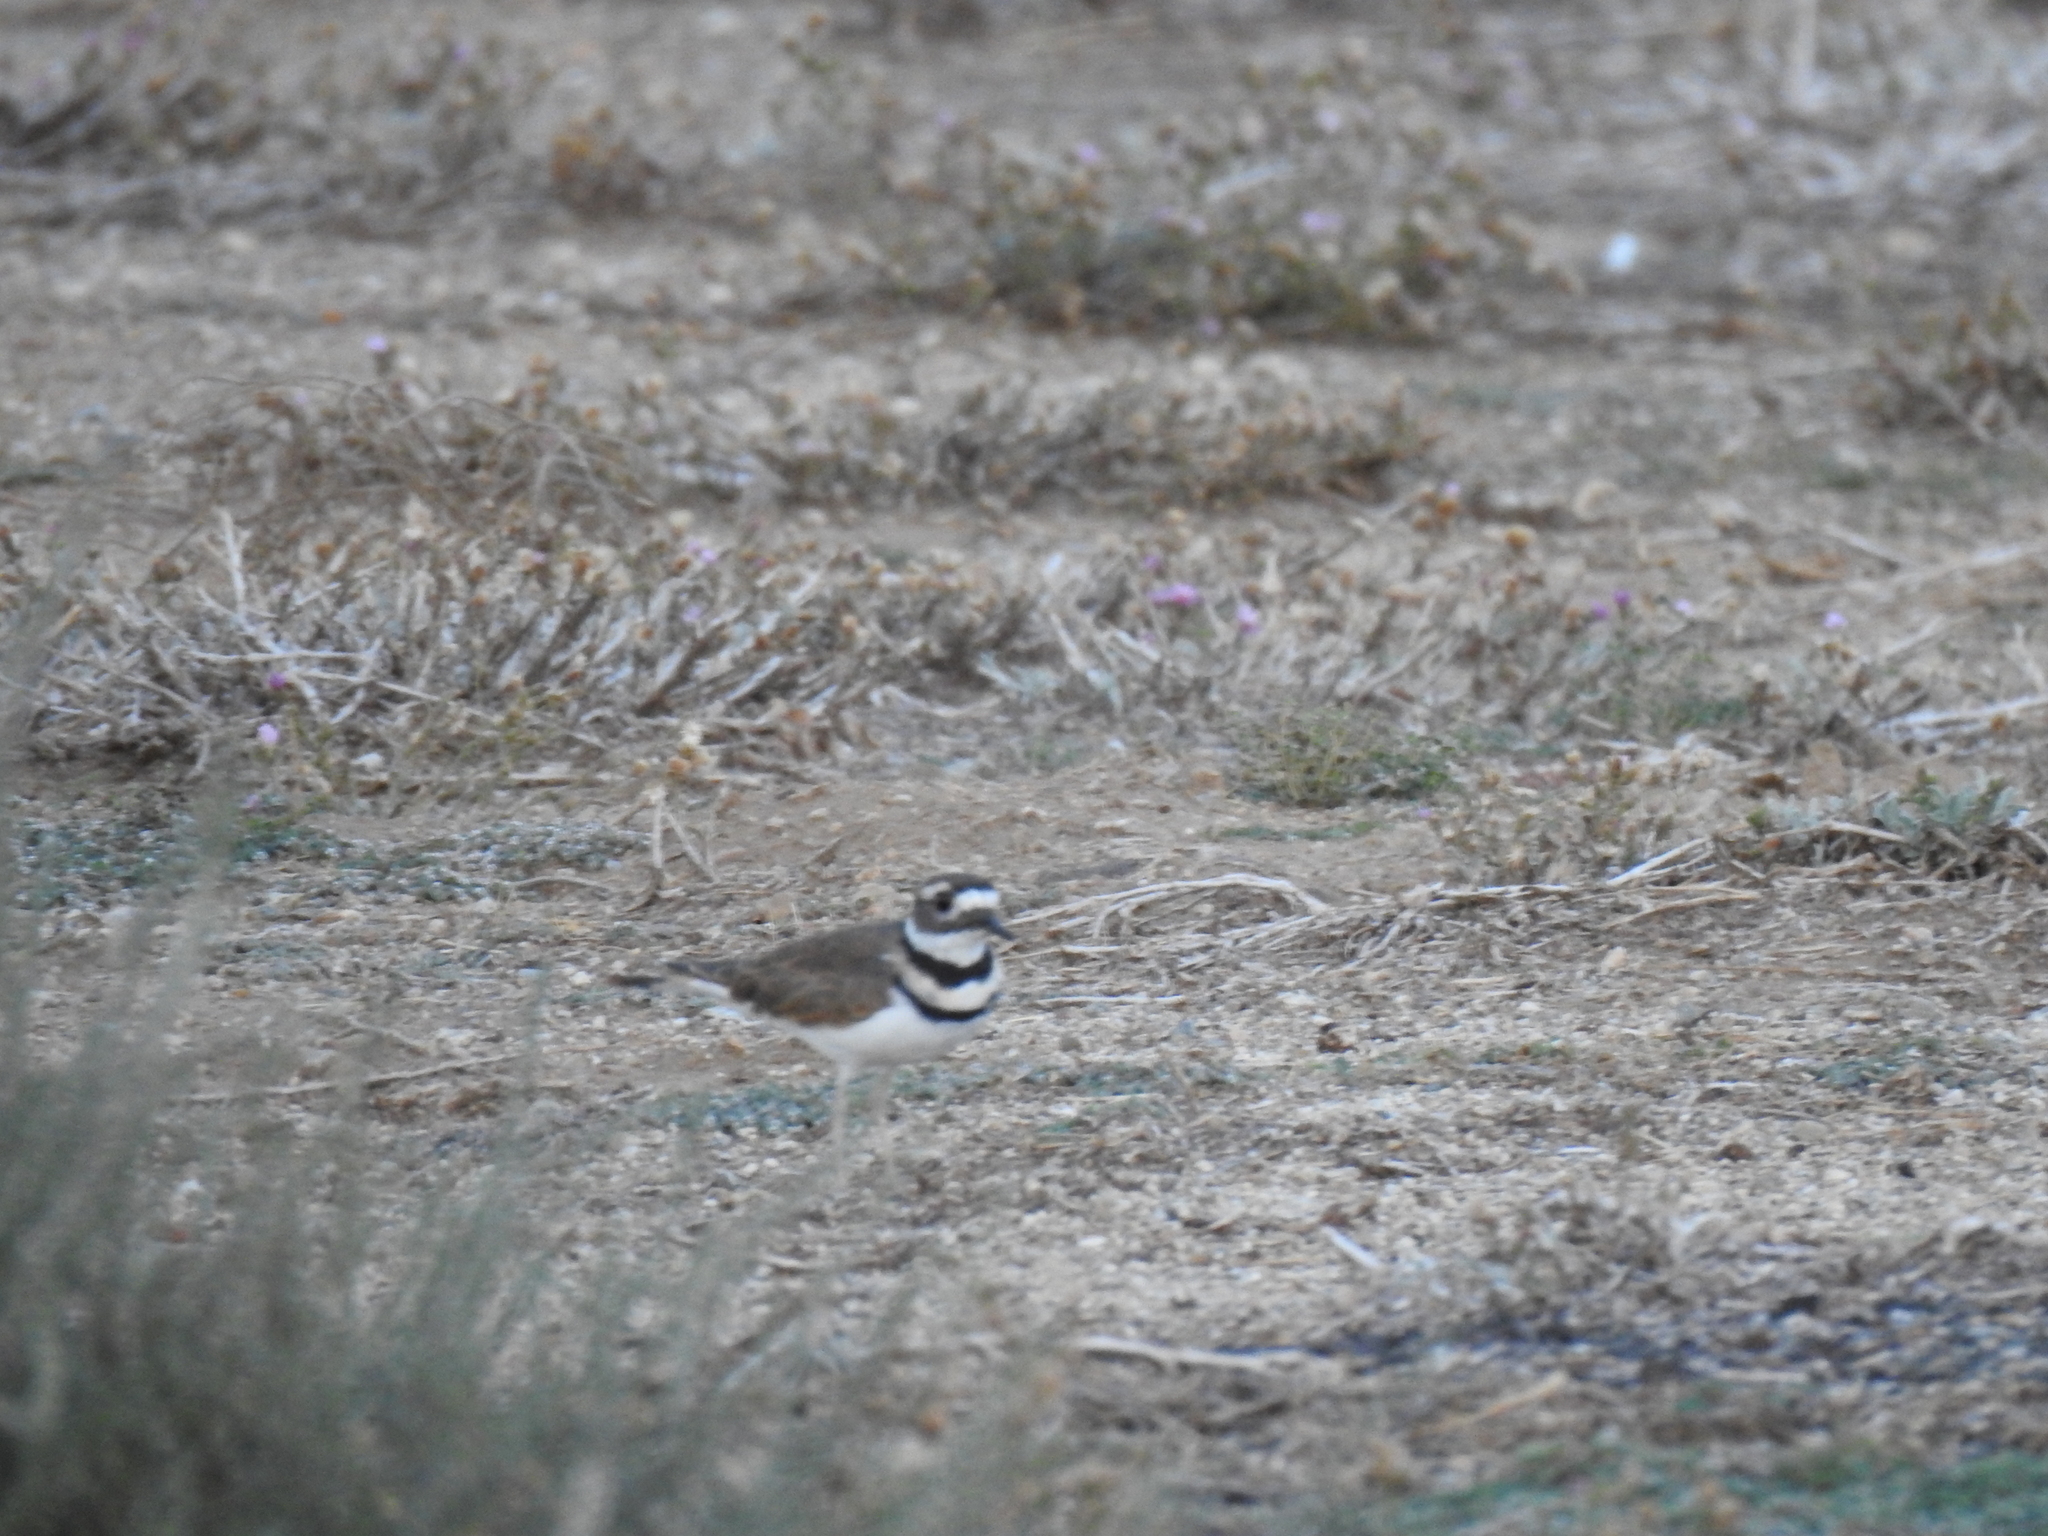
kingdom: Animalia
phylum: Chordata
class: Aves
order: Charadriiformes
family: Charadriidae
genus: Charadrius
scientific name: Charadrius vociferus
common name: Killdeer
